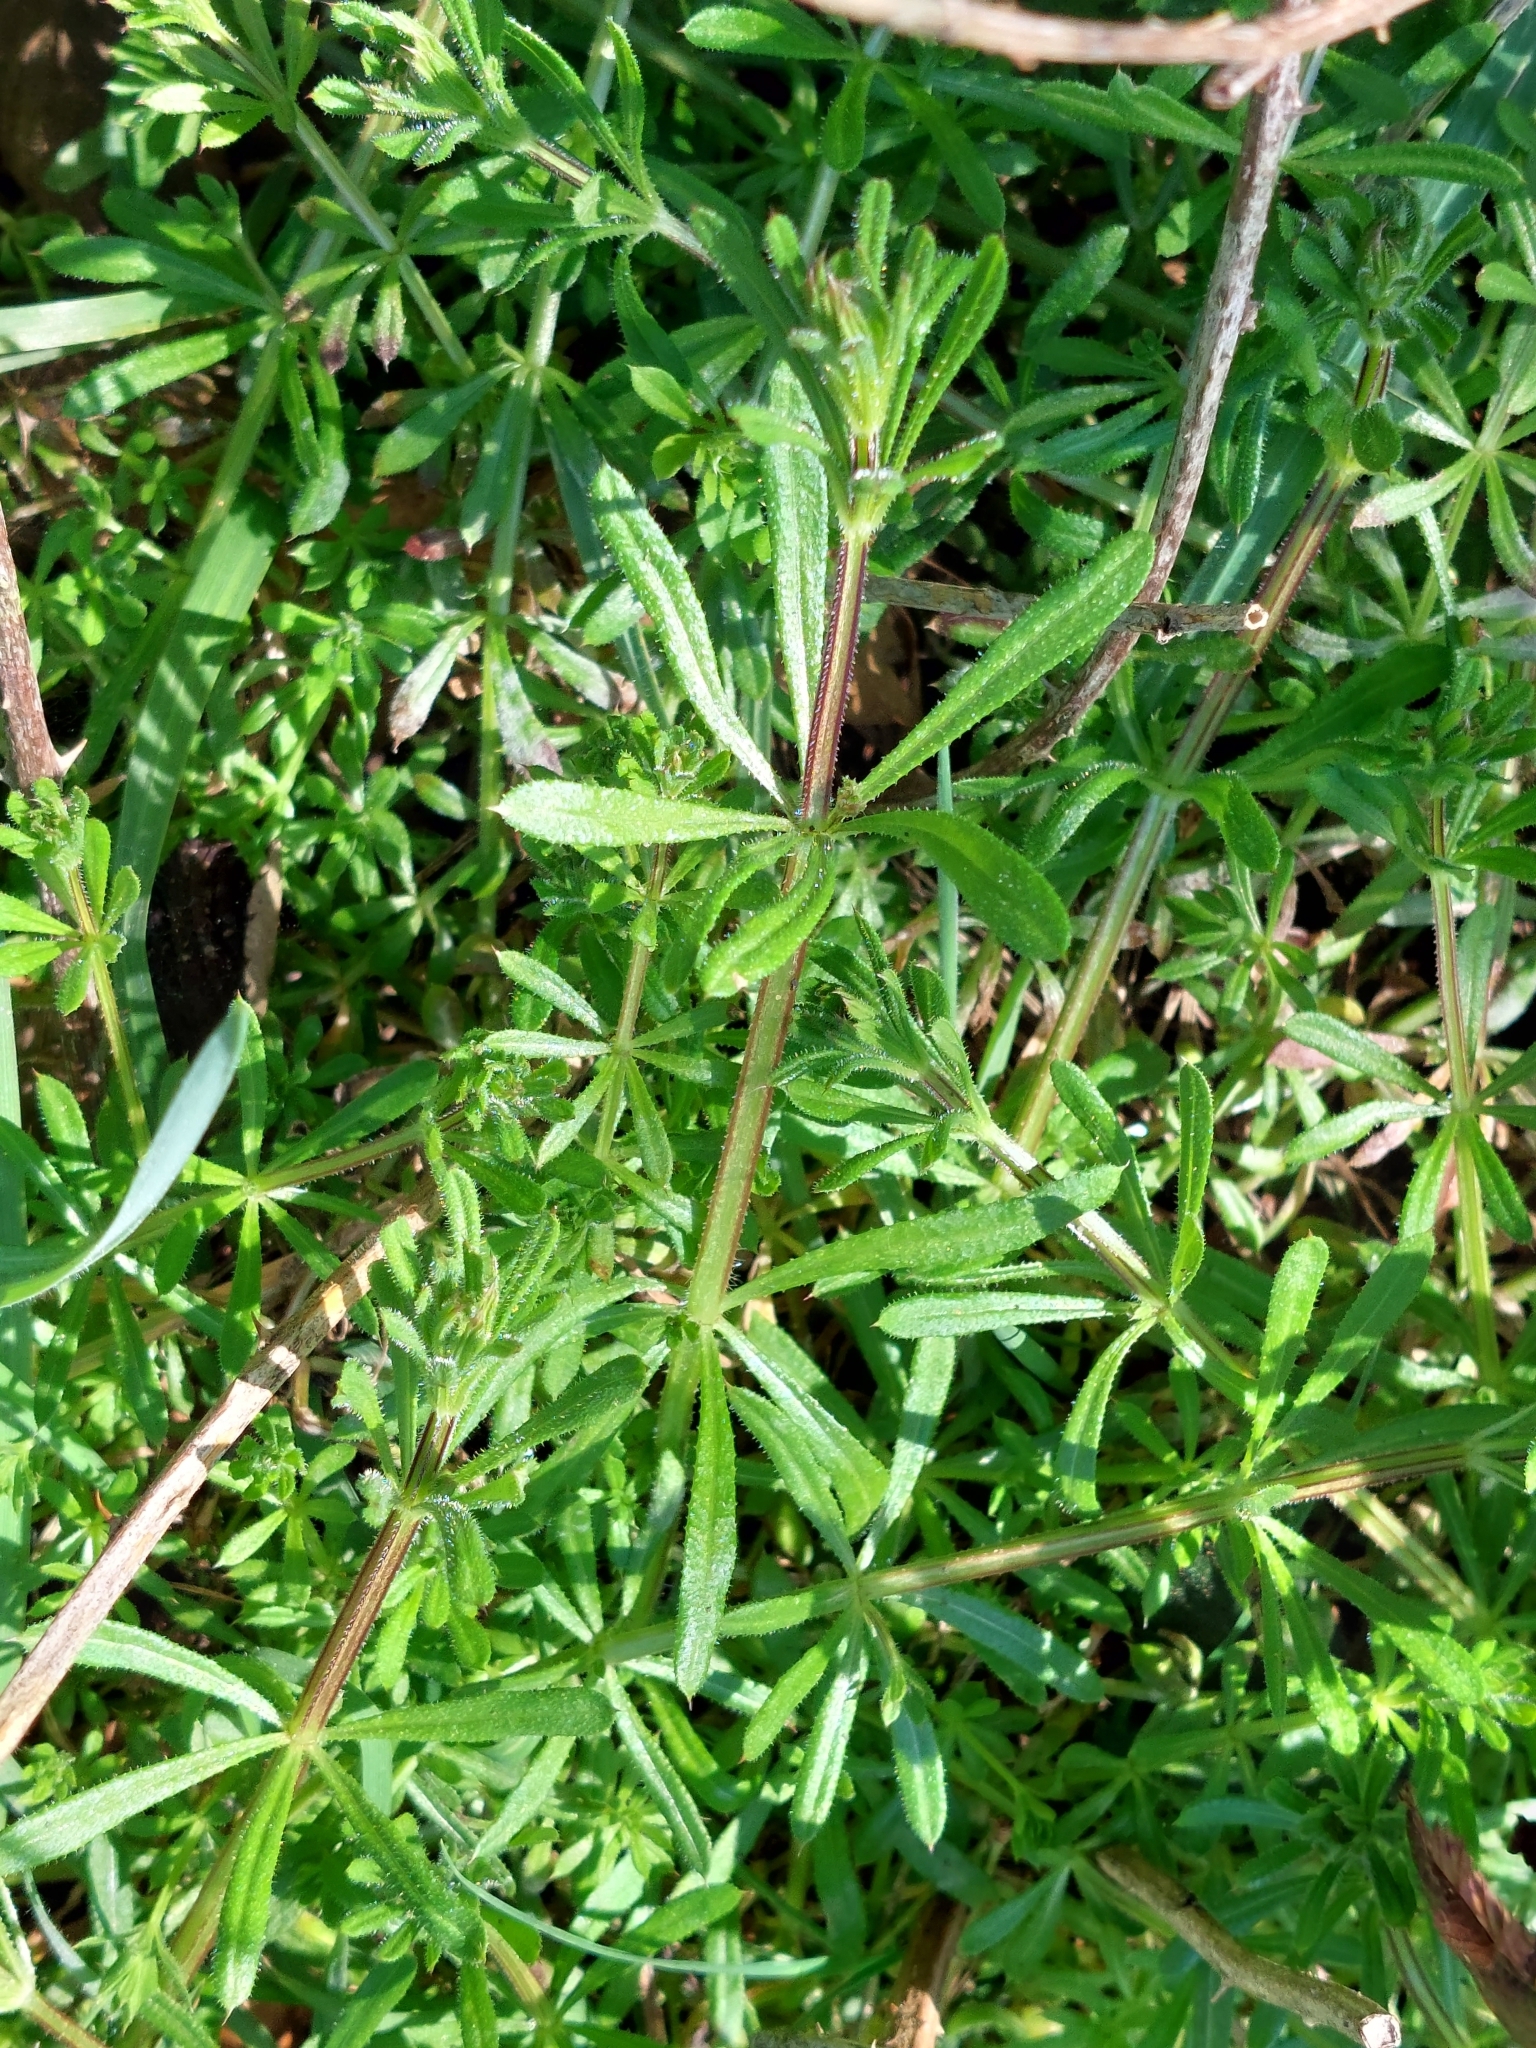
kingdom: Plantae
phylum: Tracheophyta
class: Magnoliopsida
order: Gentianales
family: Rubiaceae
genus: Galium
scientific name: Galium aparine
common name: Cleavers
